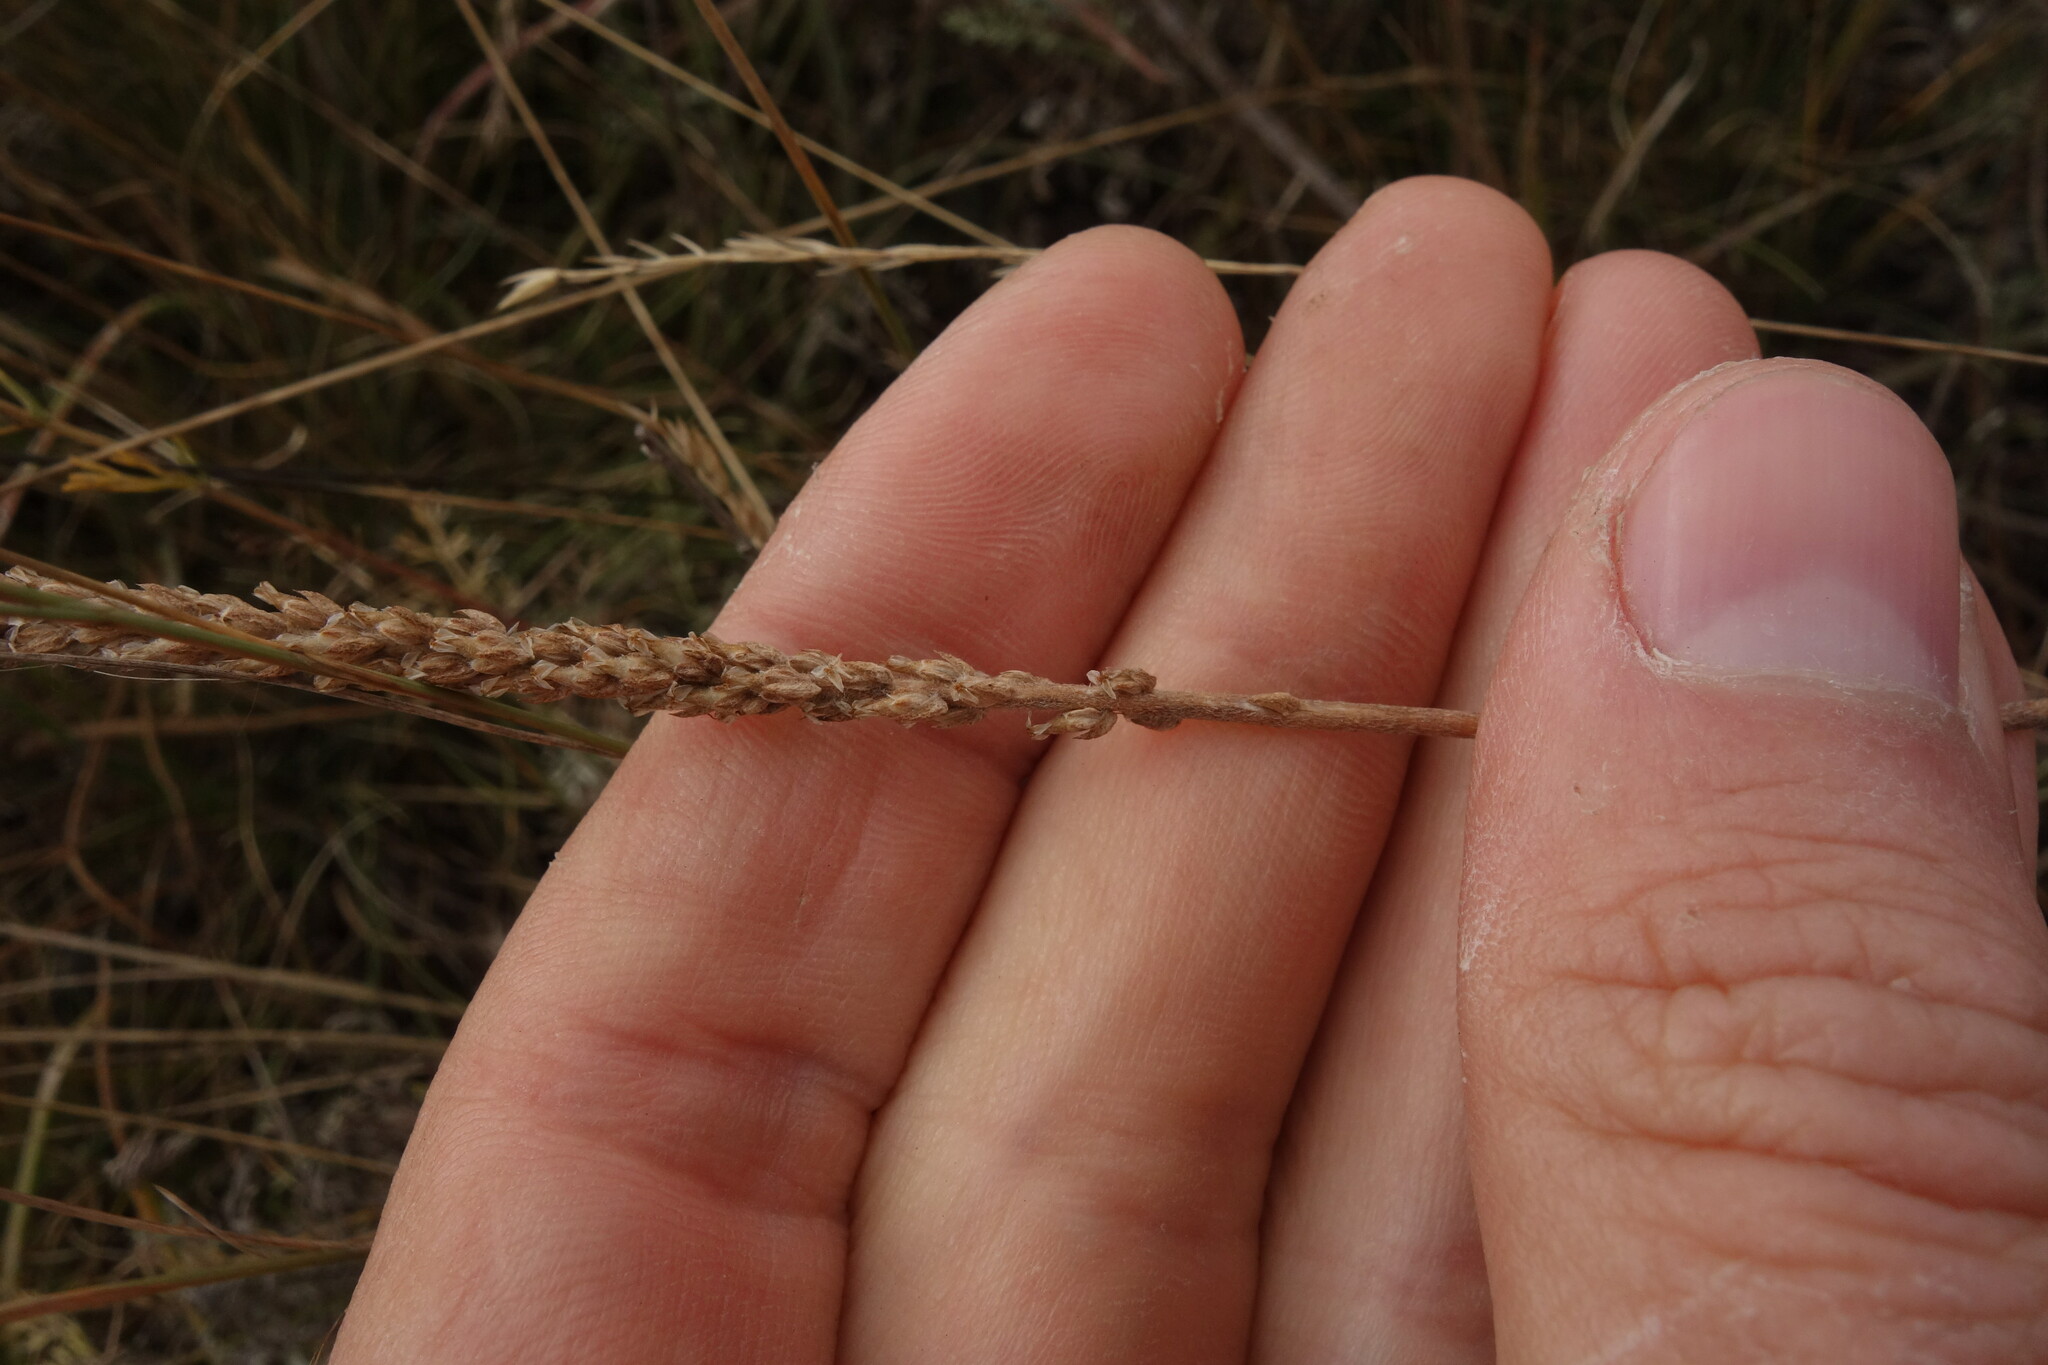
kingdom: Plantae
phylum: Tracheophyta
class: Magnoliopsida
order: Lamiales
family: Plantaginaceae
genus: Plantago
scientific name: Plantago salsa
